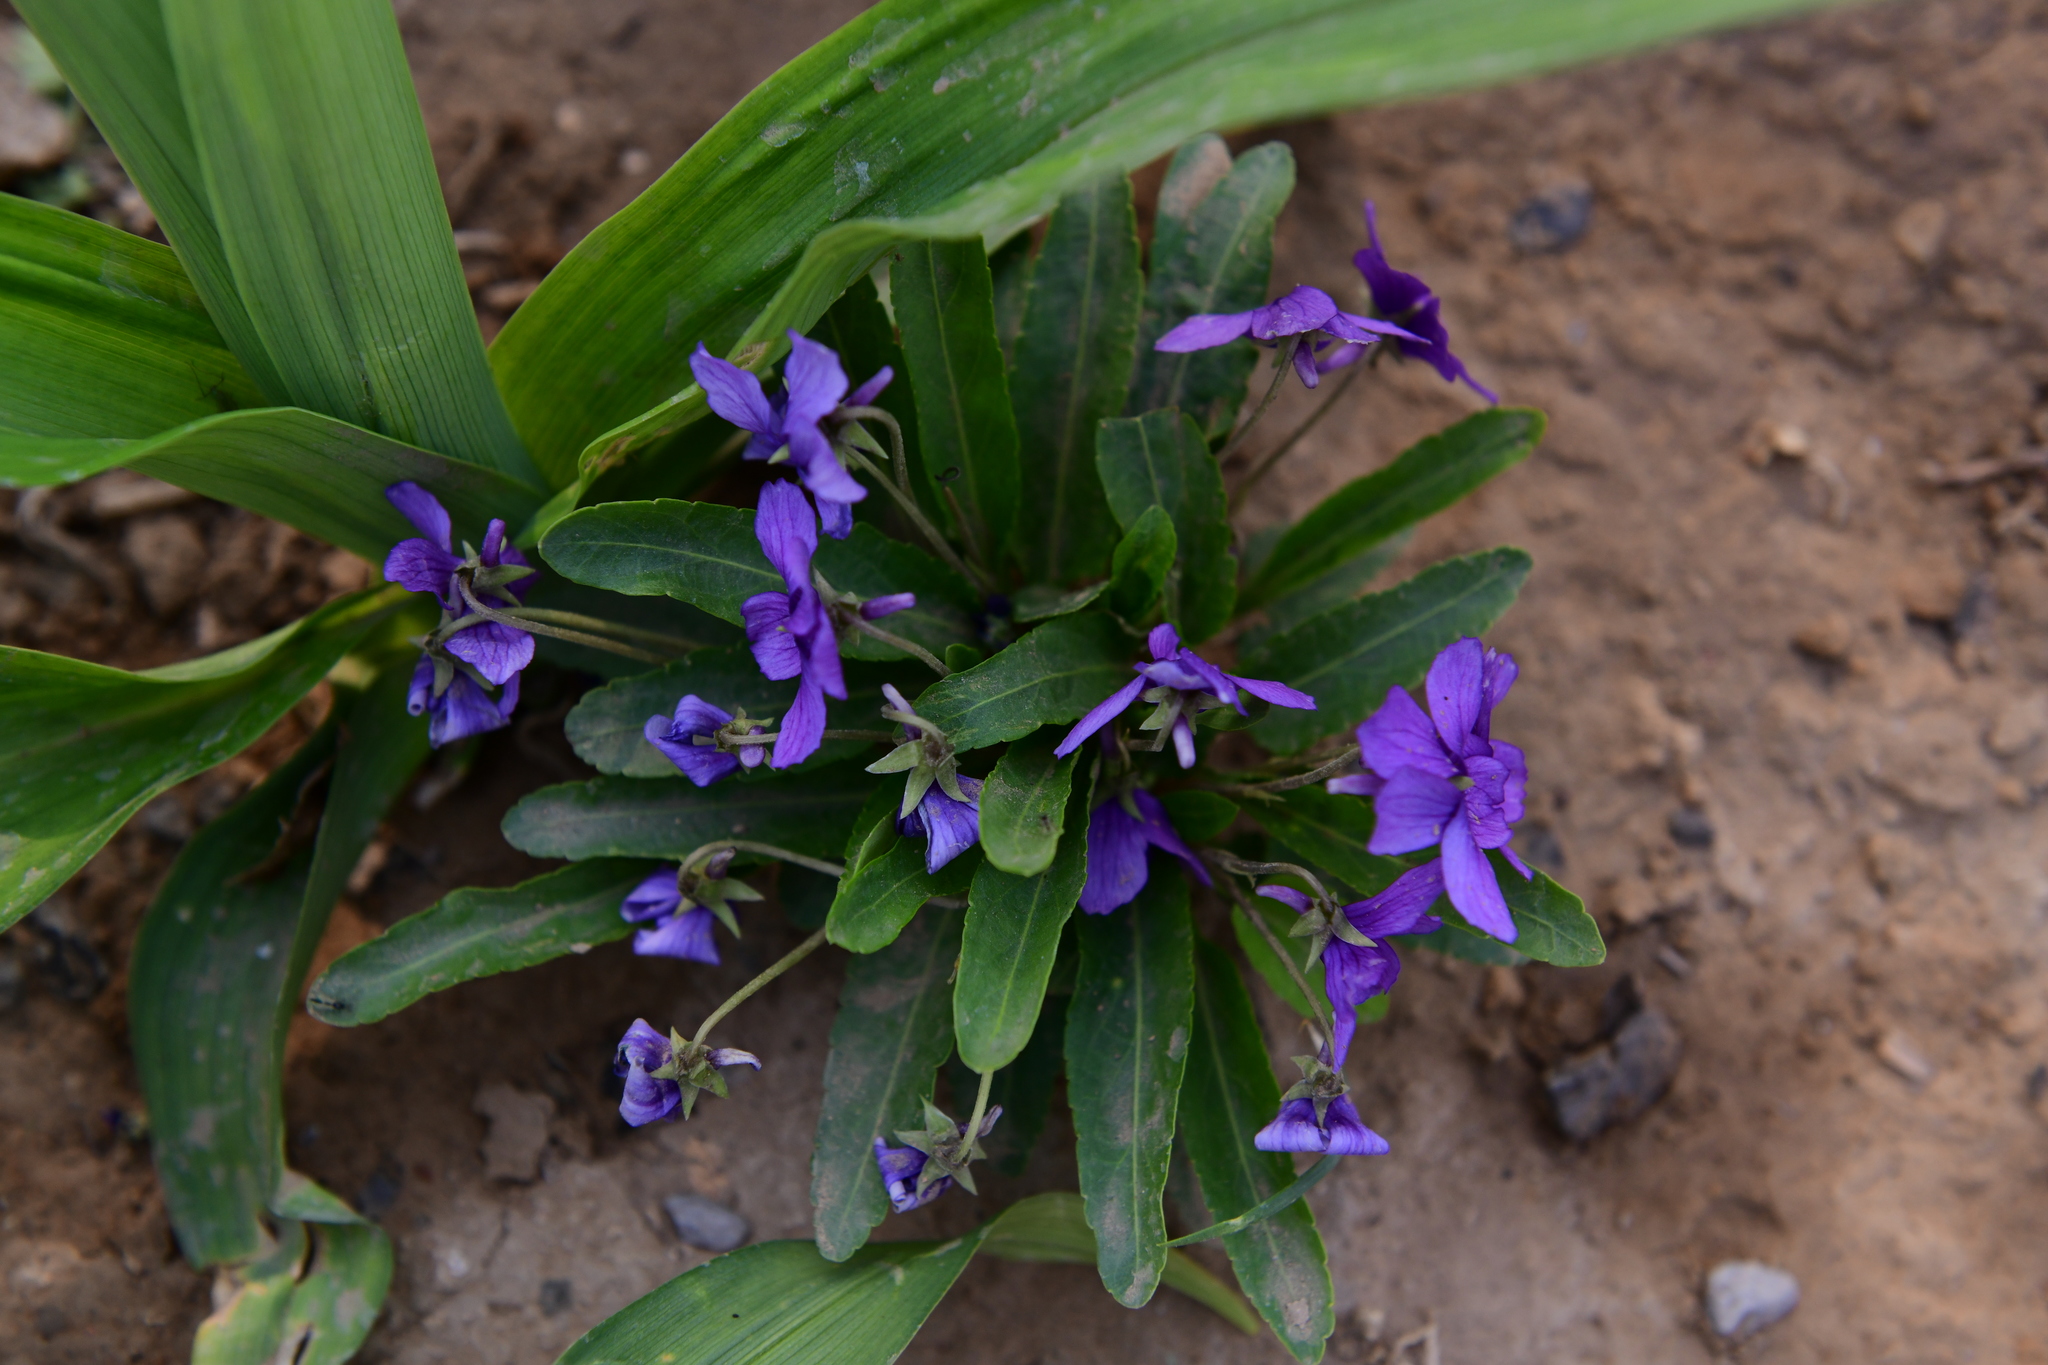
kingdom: Plantae
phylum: Tracheophyta
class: Magnoliopsida
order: Malpighiales
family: Violaceae
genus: Viola
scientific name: Viola philippica
